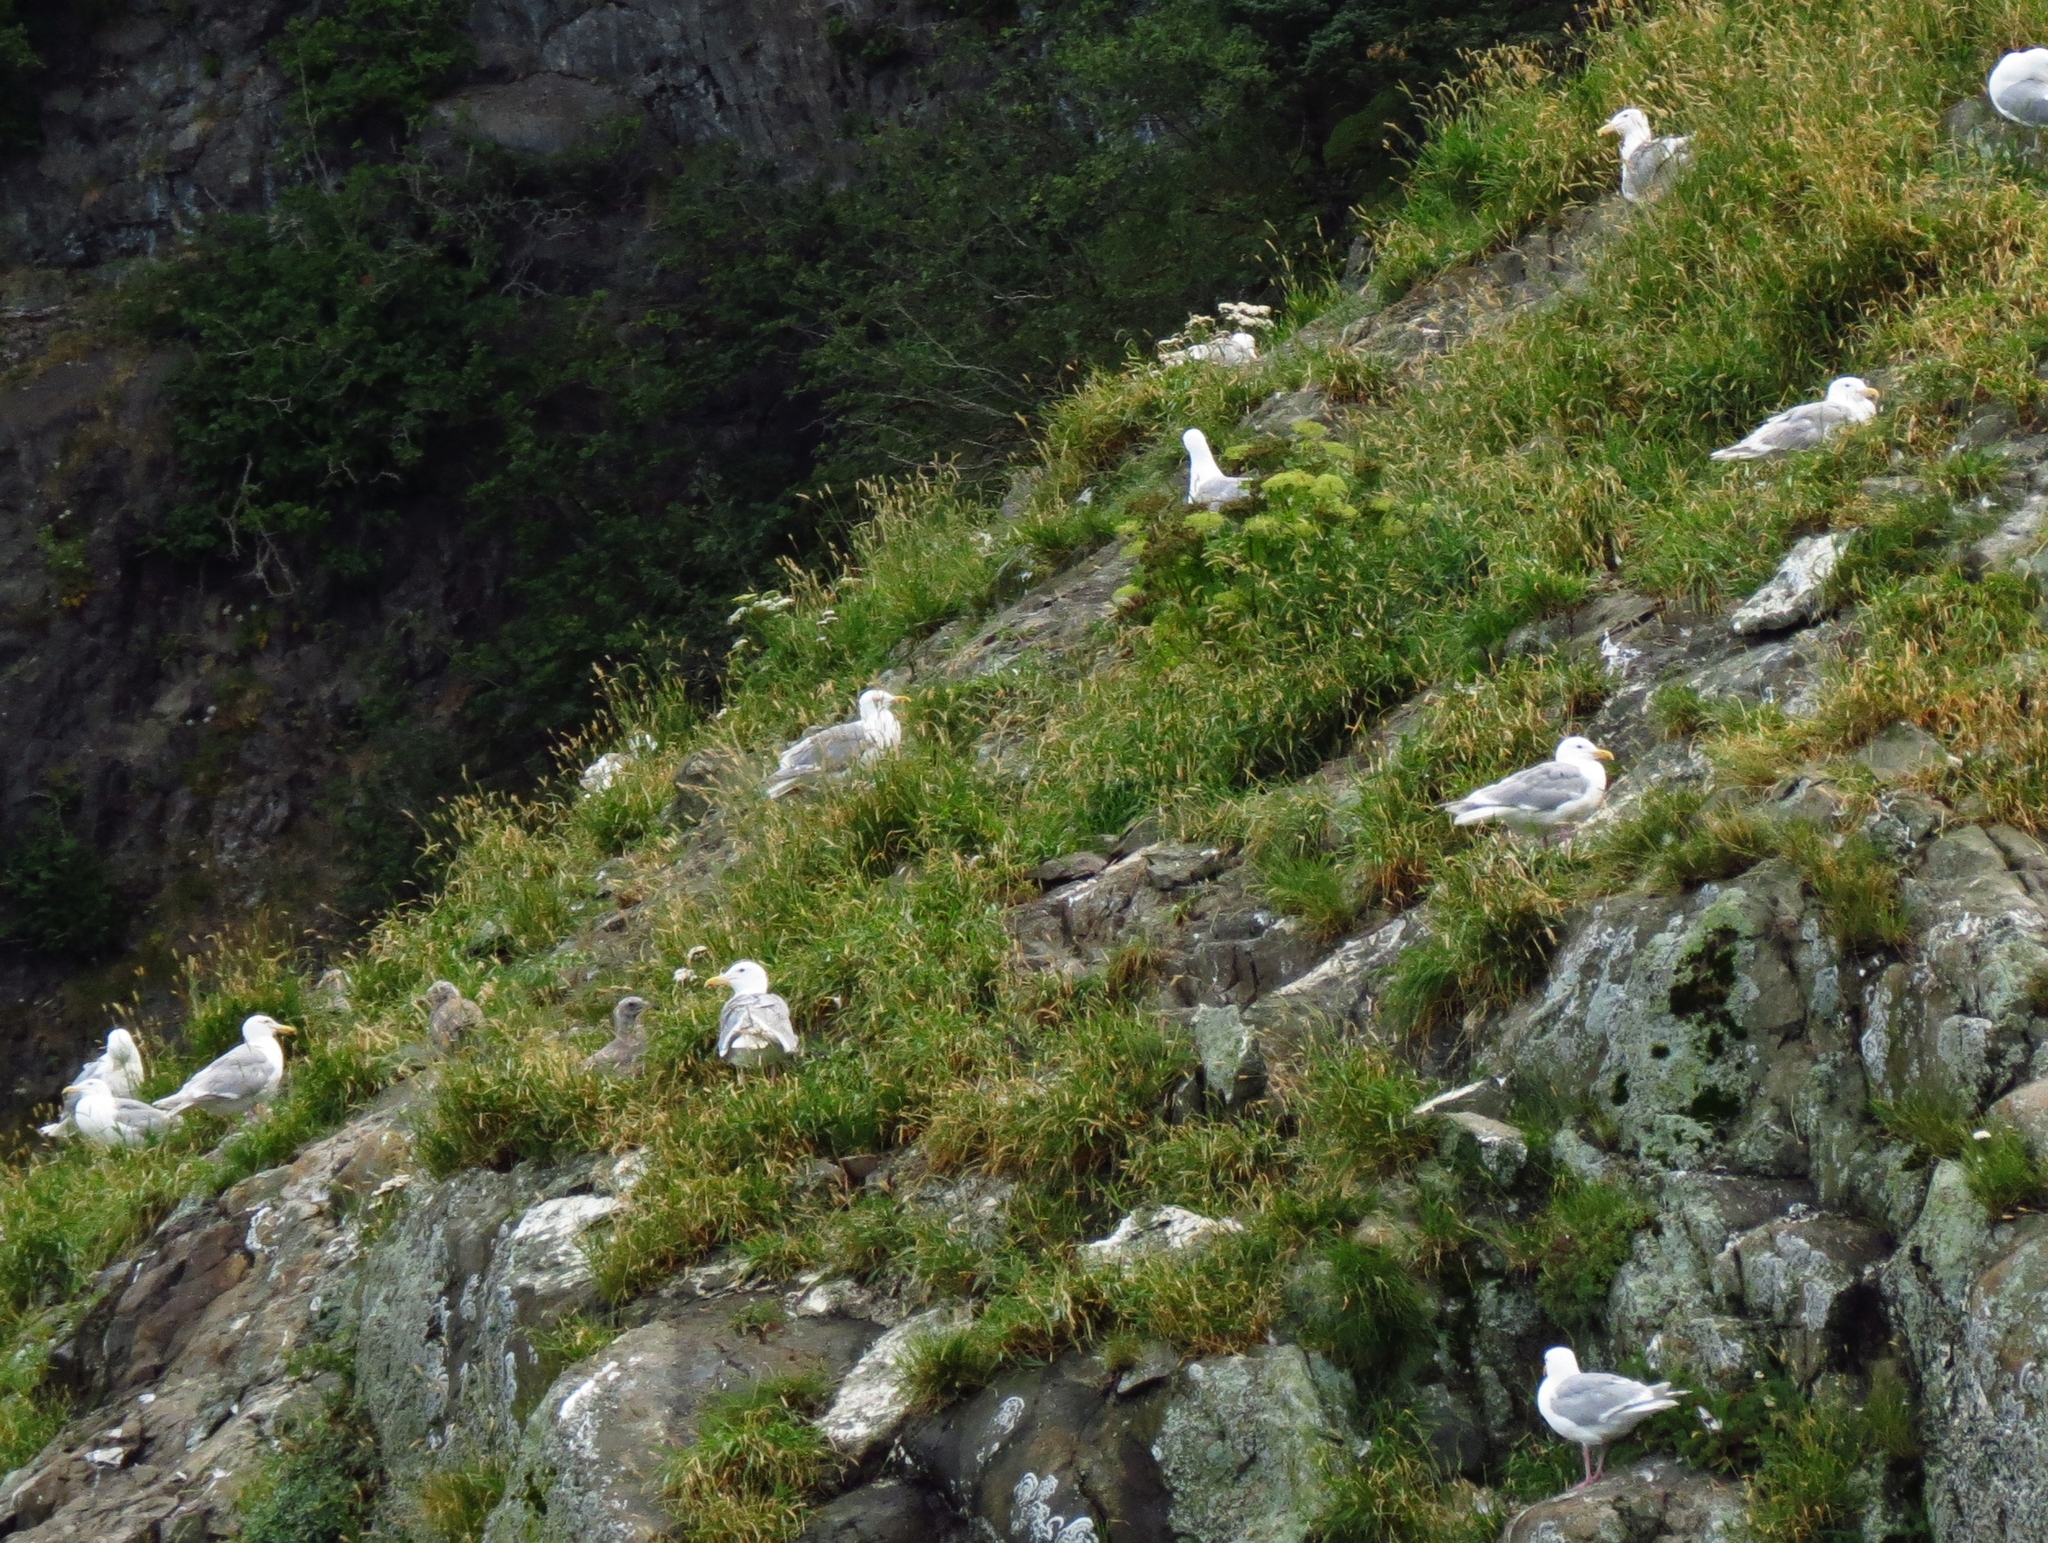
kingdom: Animalia
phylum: Chordata
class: Aves
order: Charadriiformes
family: Laridae
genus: Larus
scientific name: Larus glaucescens
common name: Glaucous-winged gull
